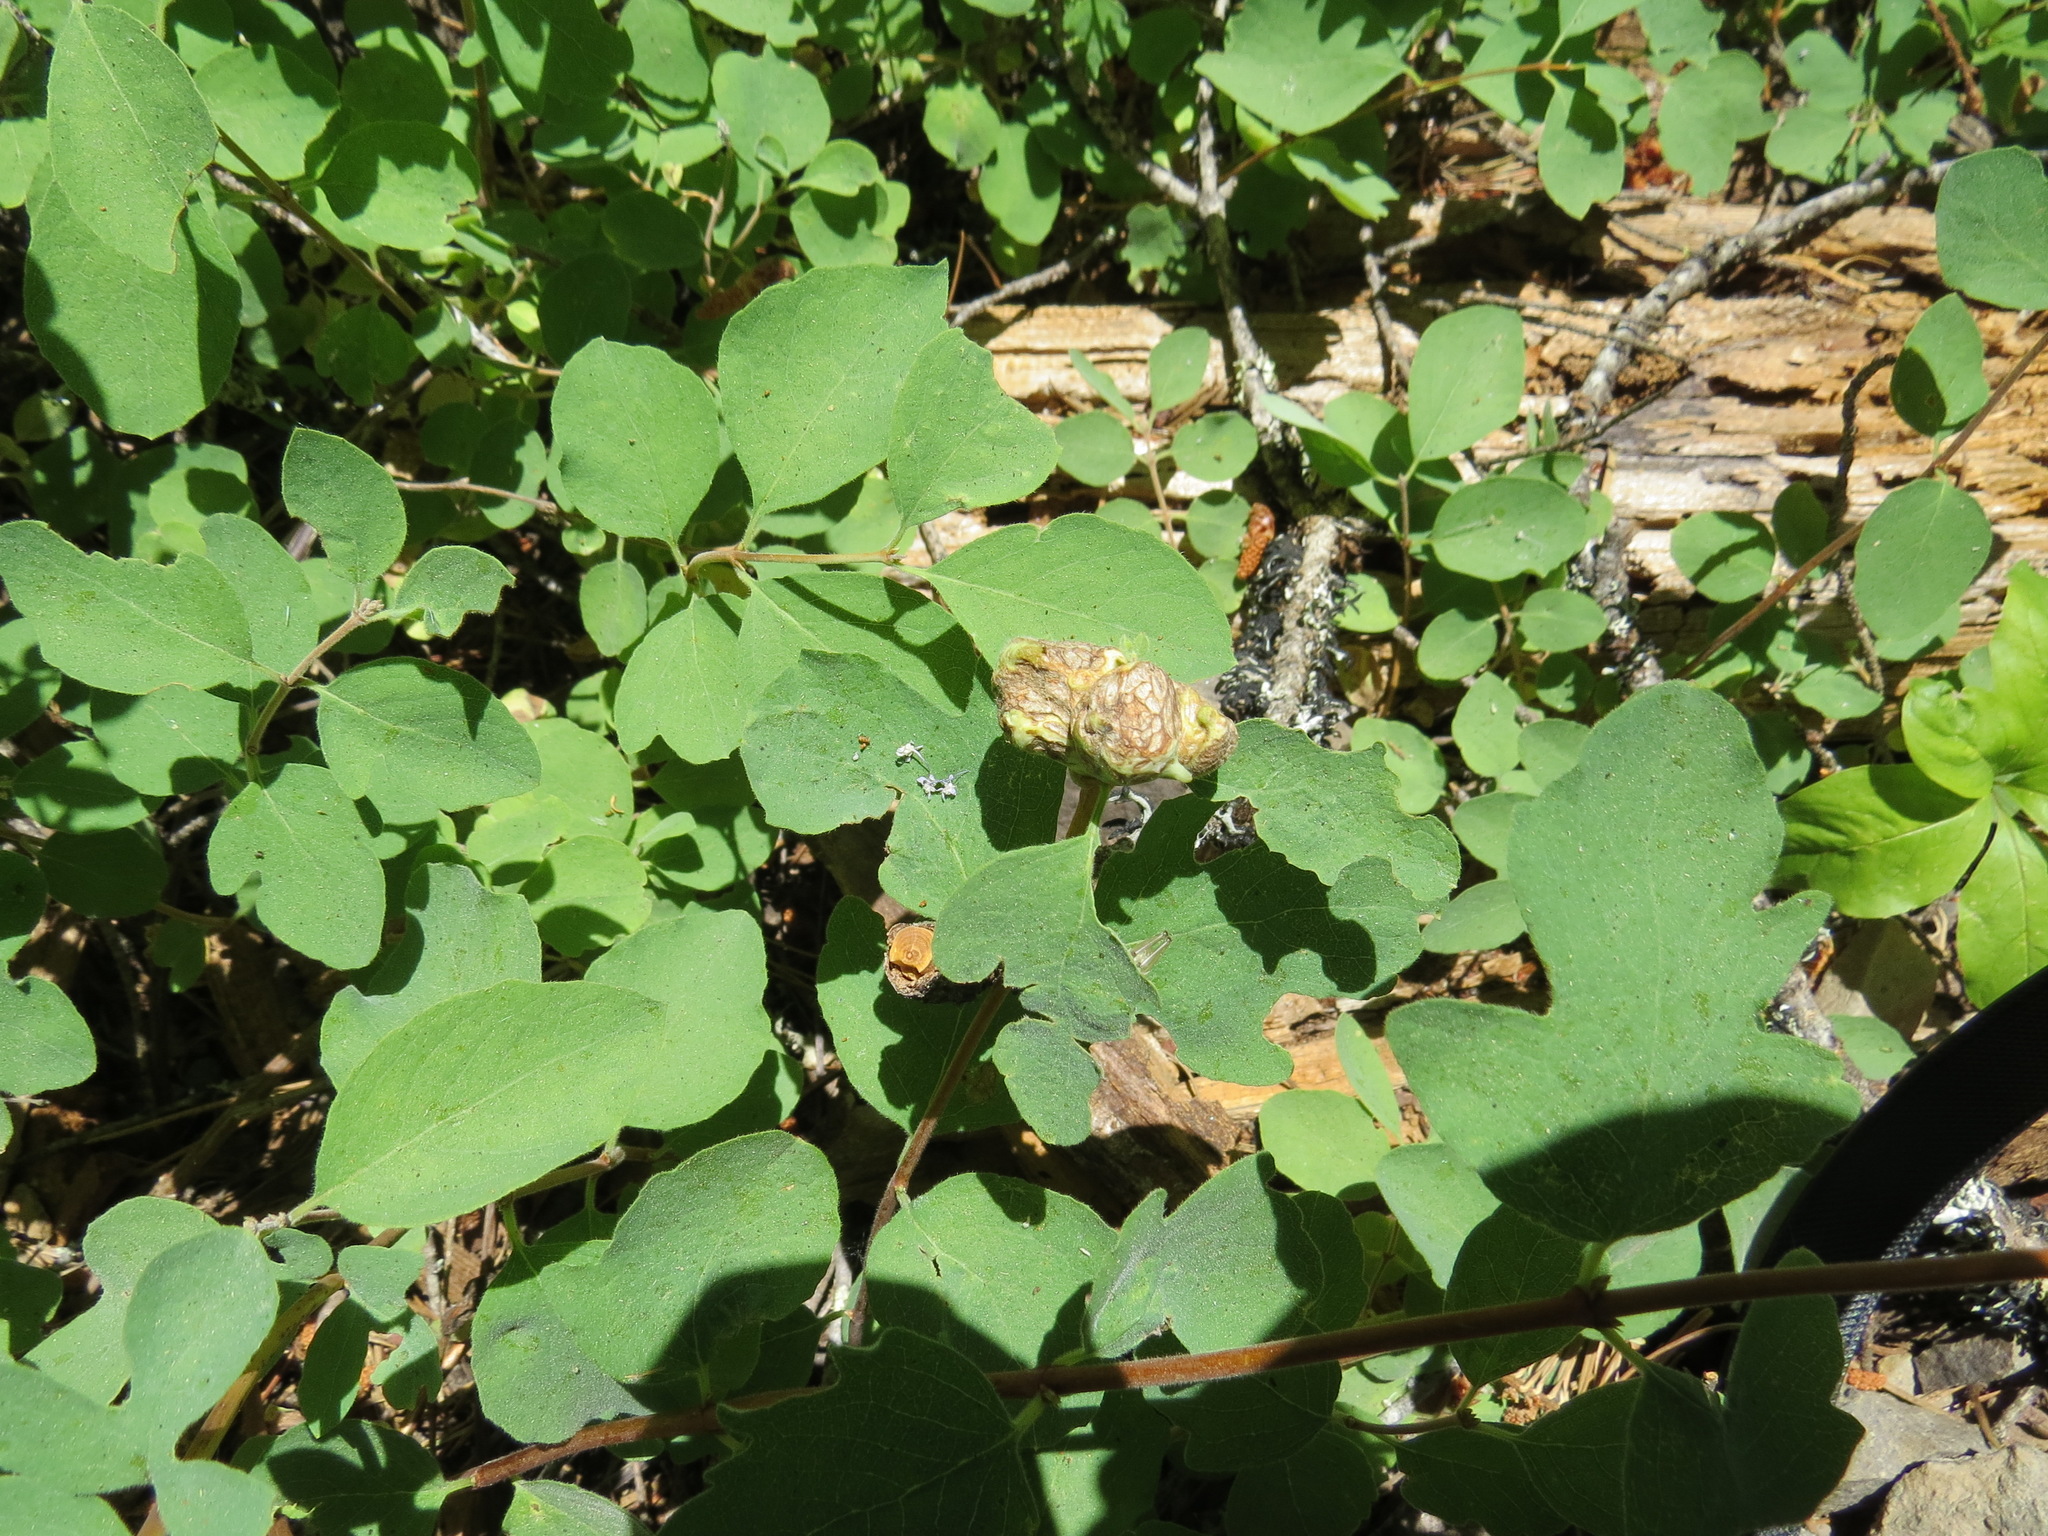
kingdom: Animalia
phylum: Arthropoda
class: Insecta
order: Hymenoptera
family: Tenthredinidae
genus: Blennogeneris
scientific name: Blennogeneris spissipes
